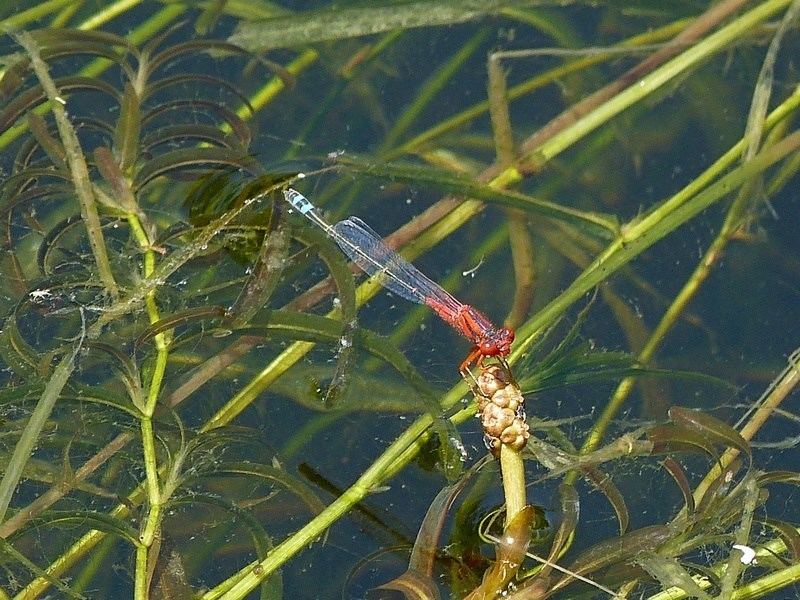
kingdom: Animalia
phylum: Arthropoda
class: Insecta
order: Odonata
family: Coenagrionidae
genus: Xanthagrion
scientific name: Xanthagrion erythroneurum
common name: Red and blue damsel
